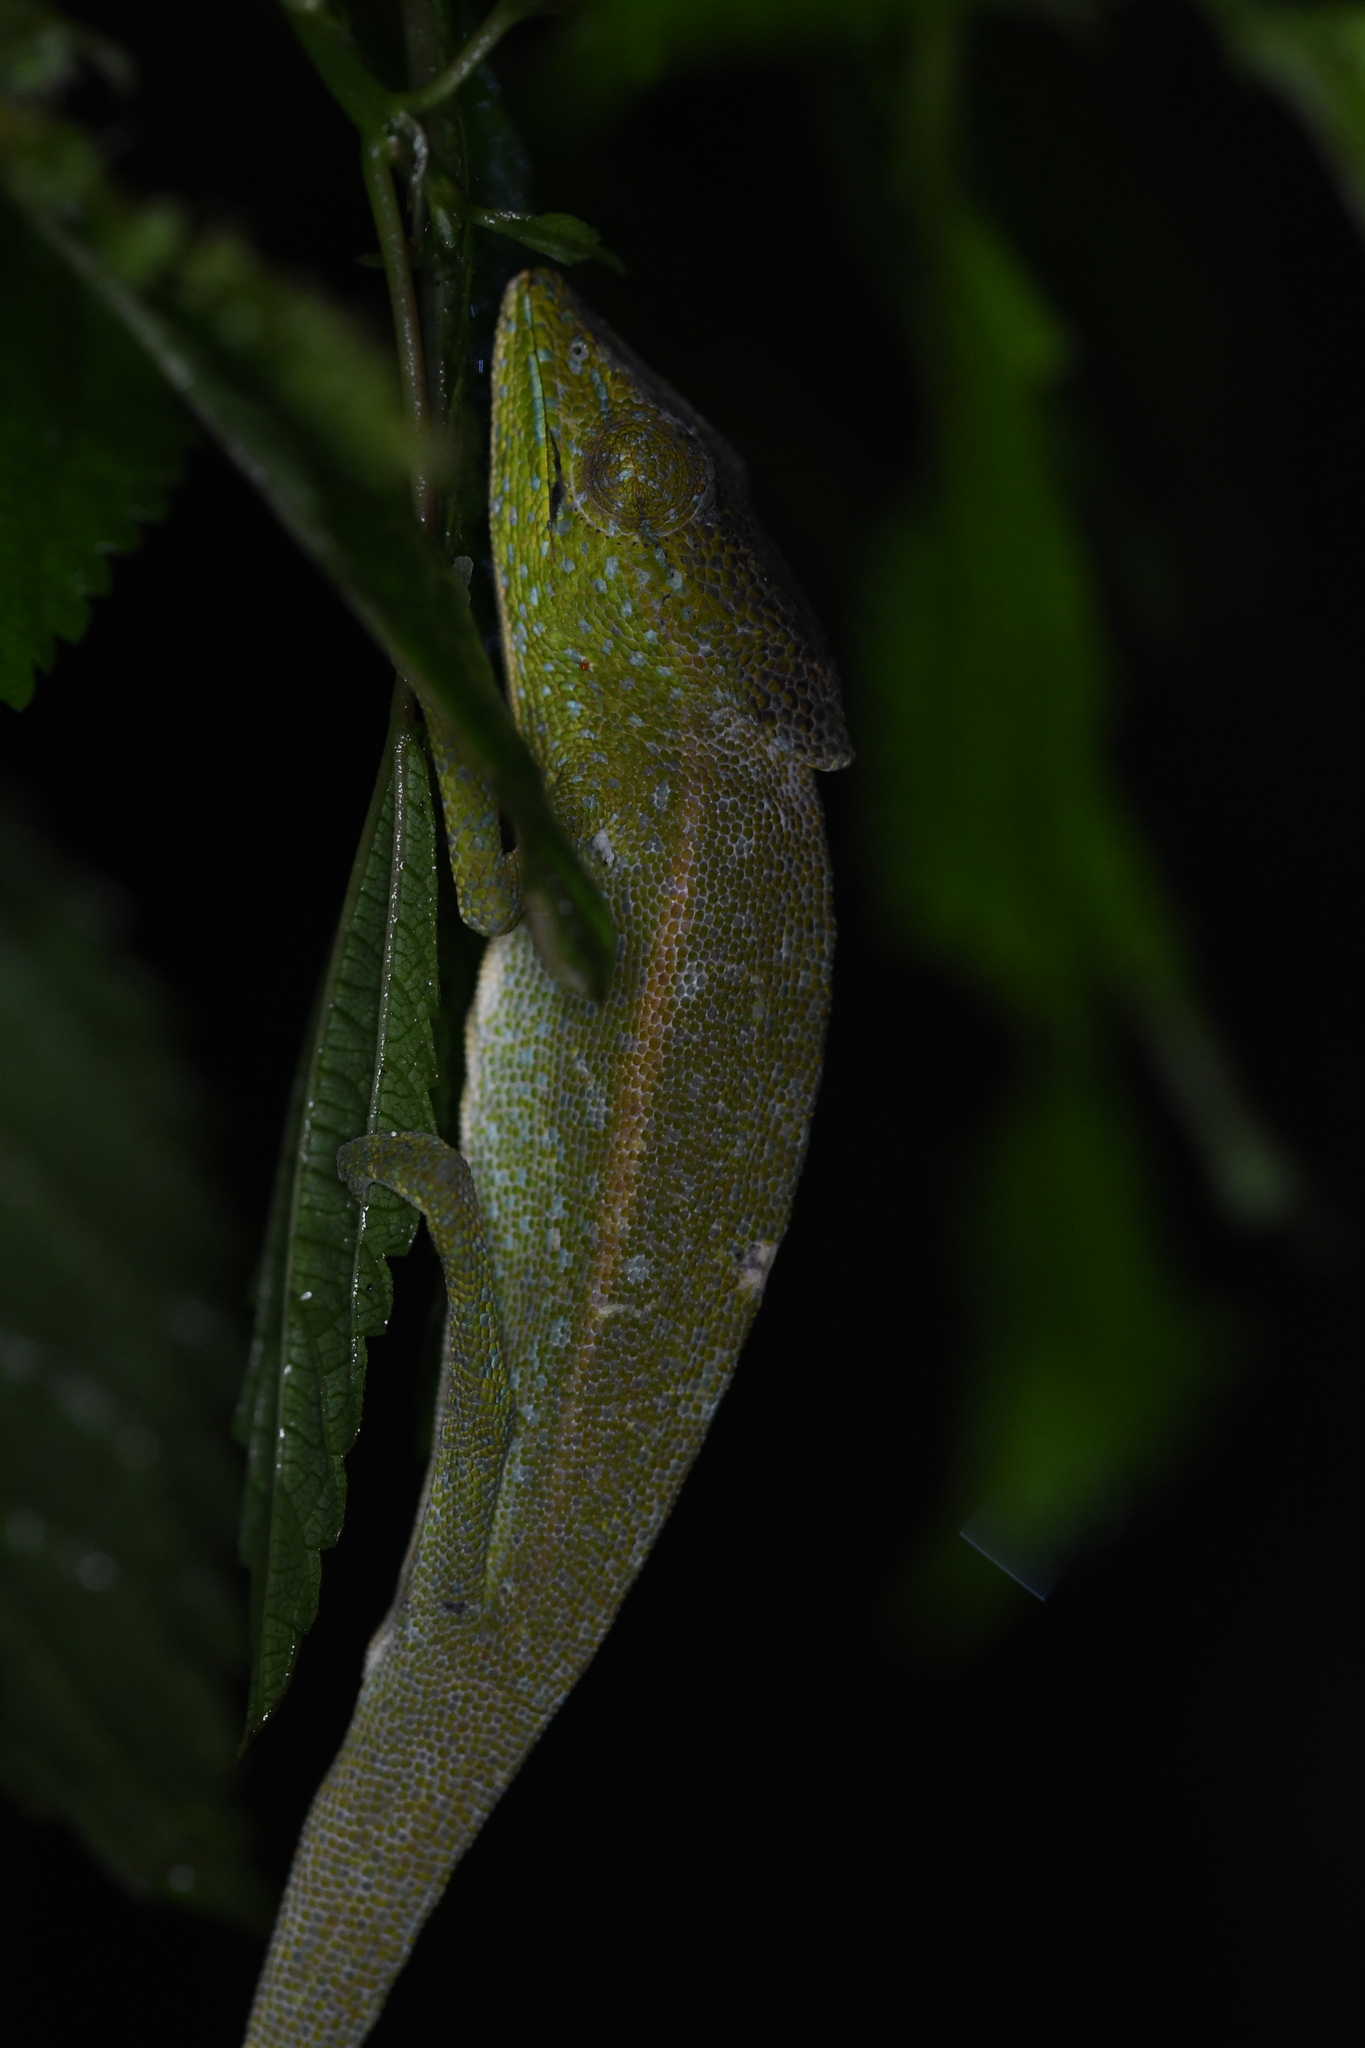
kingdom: Animalia
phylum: Chordata
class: Squamata
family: Chamaeleonidae
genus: Calumma
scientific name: Calumma glawi
